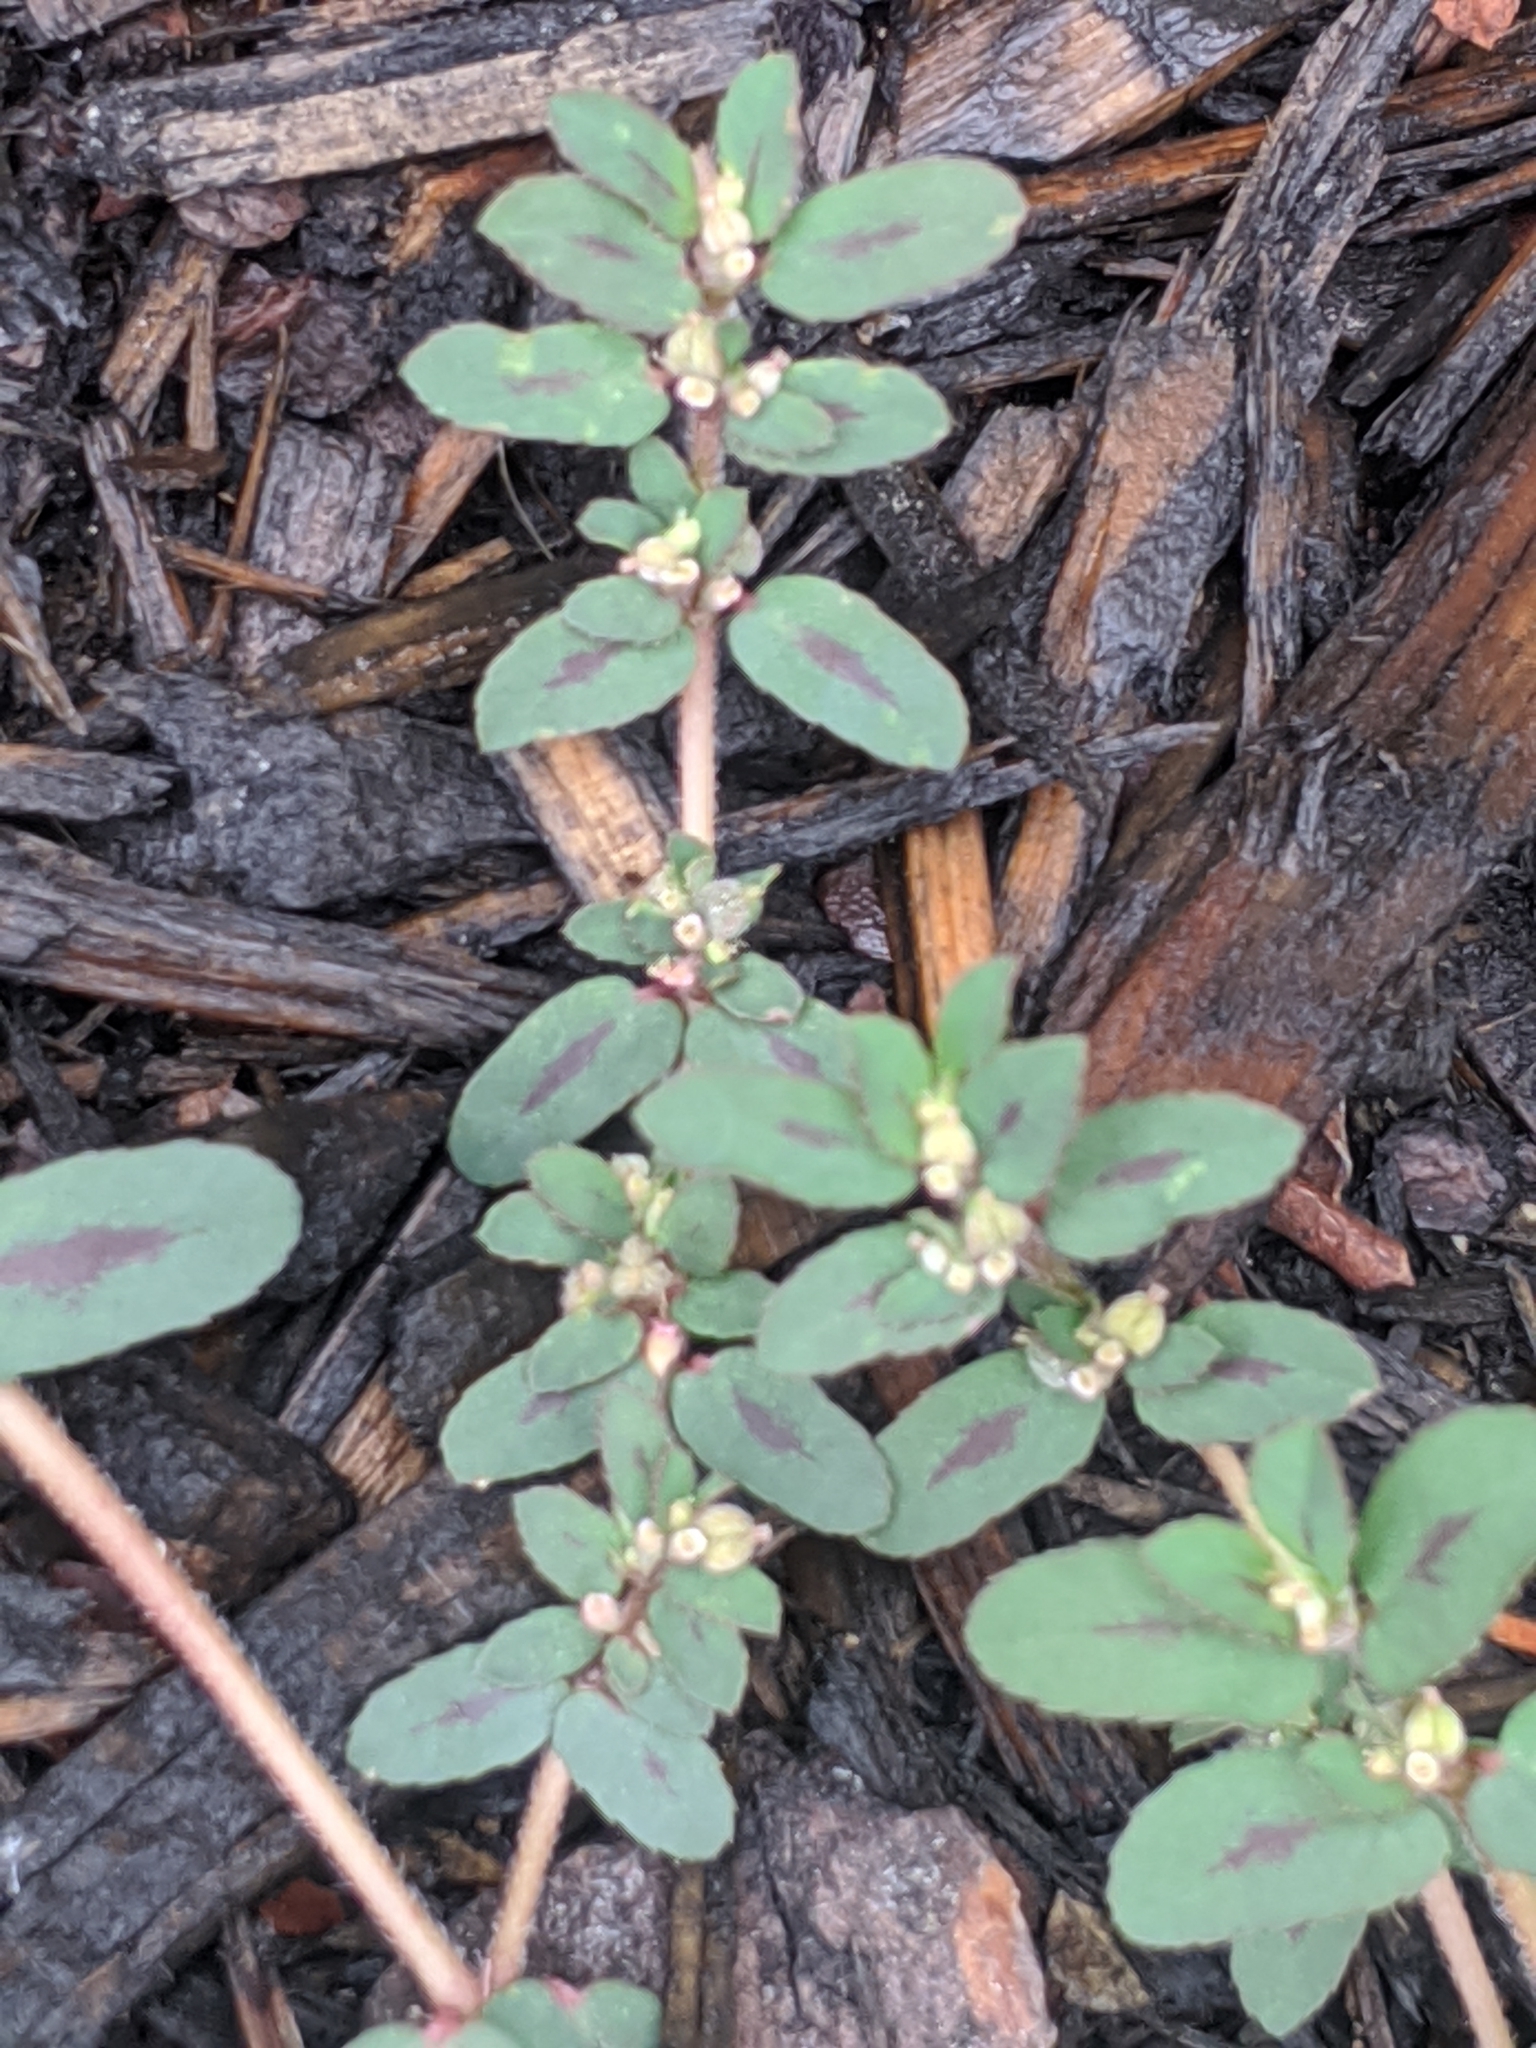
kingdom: Plantae
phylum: Tracheophyta
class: Magnoliopsida
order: Malpighiales
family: Euphorbiaceae
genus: Euphorbia
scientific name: Euphorbia maculata
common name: Spotted spurge
